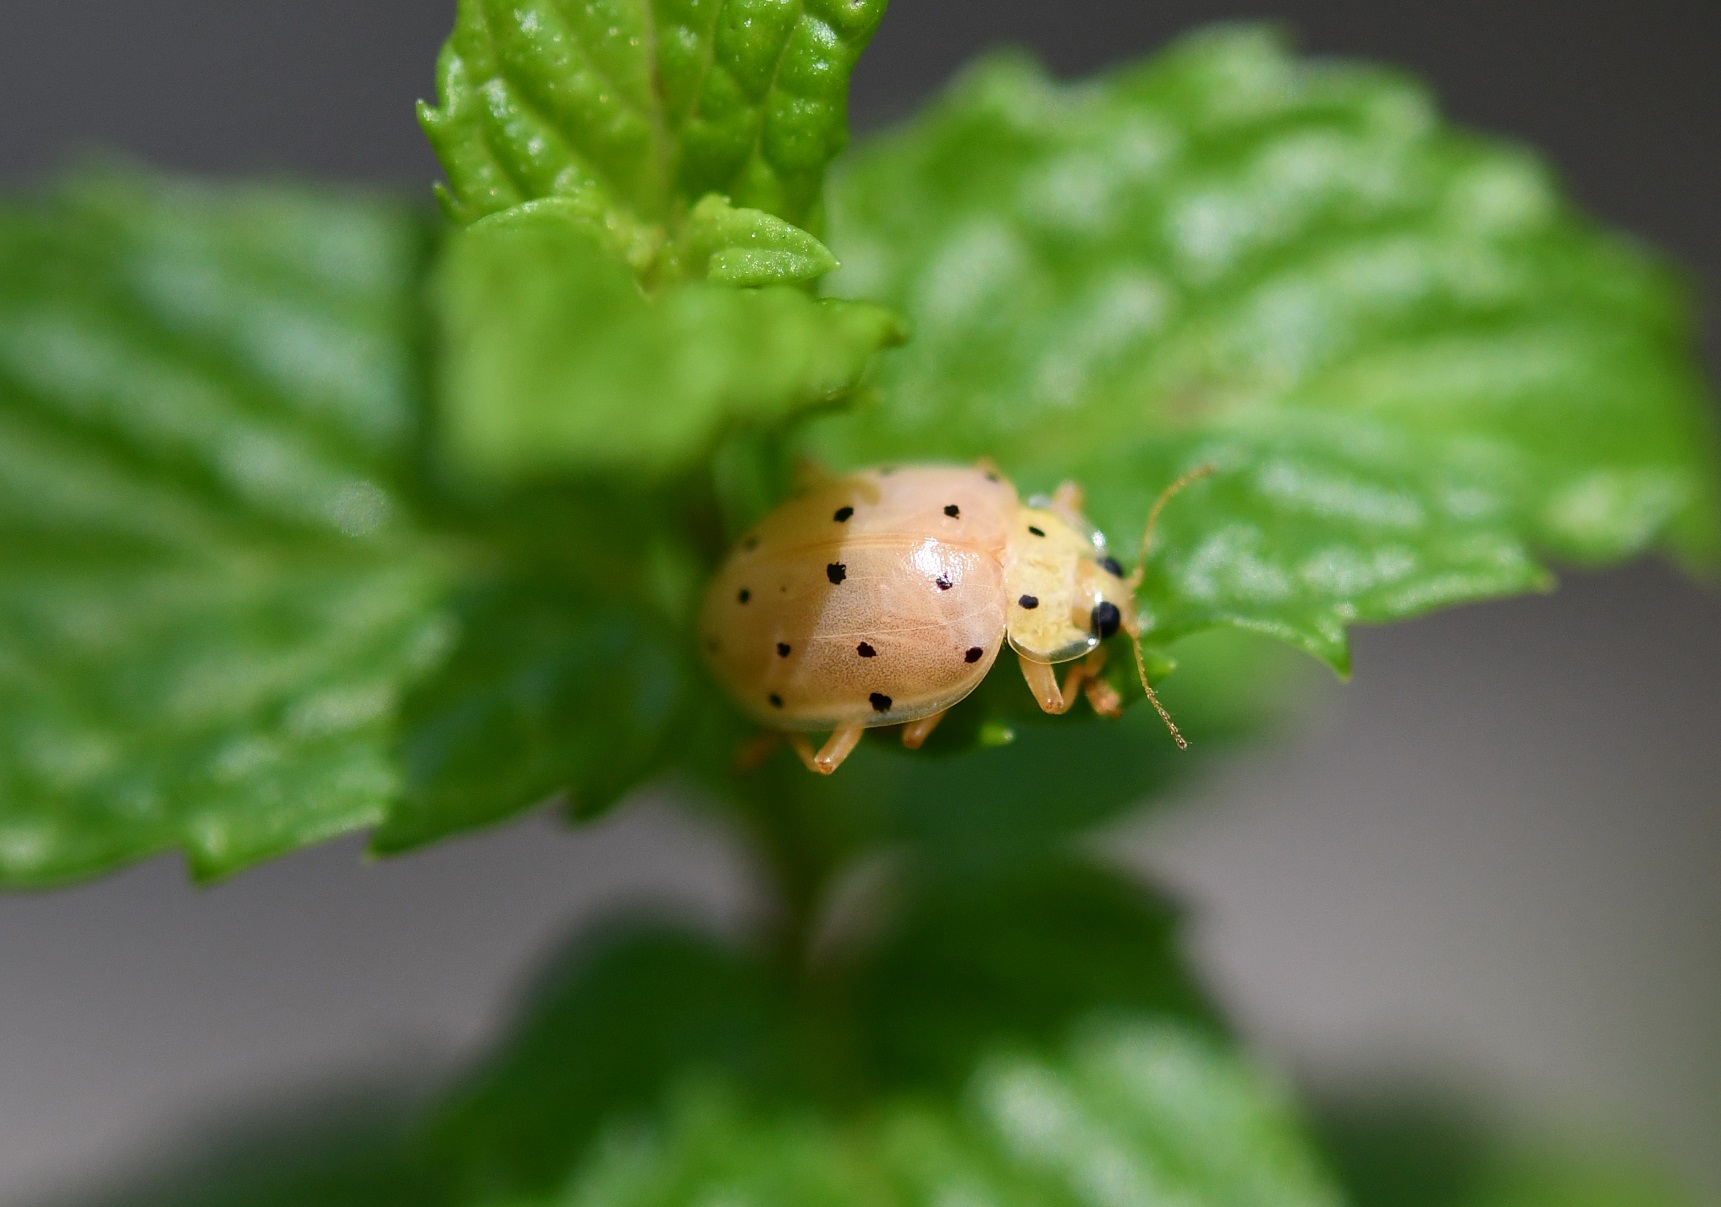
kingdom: Animalia
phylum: Arthropoda
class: Insecta
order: Coleoptera
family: Coccinellidae
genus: Neohalyzia
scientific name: Neohalyzia
